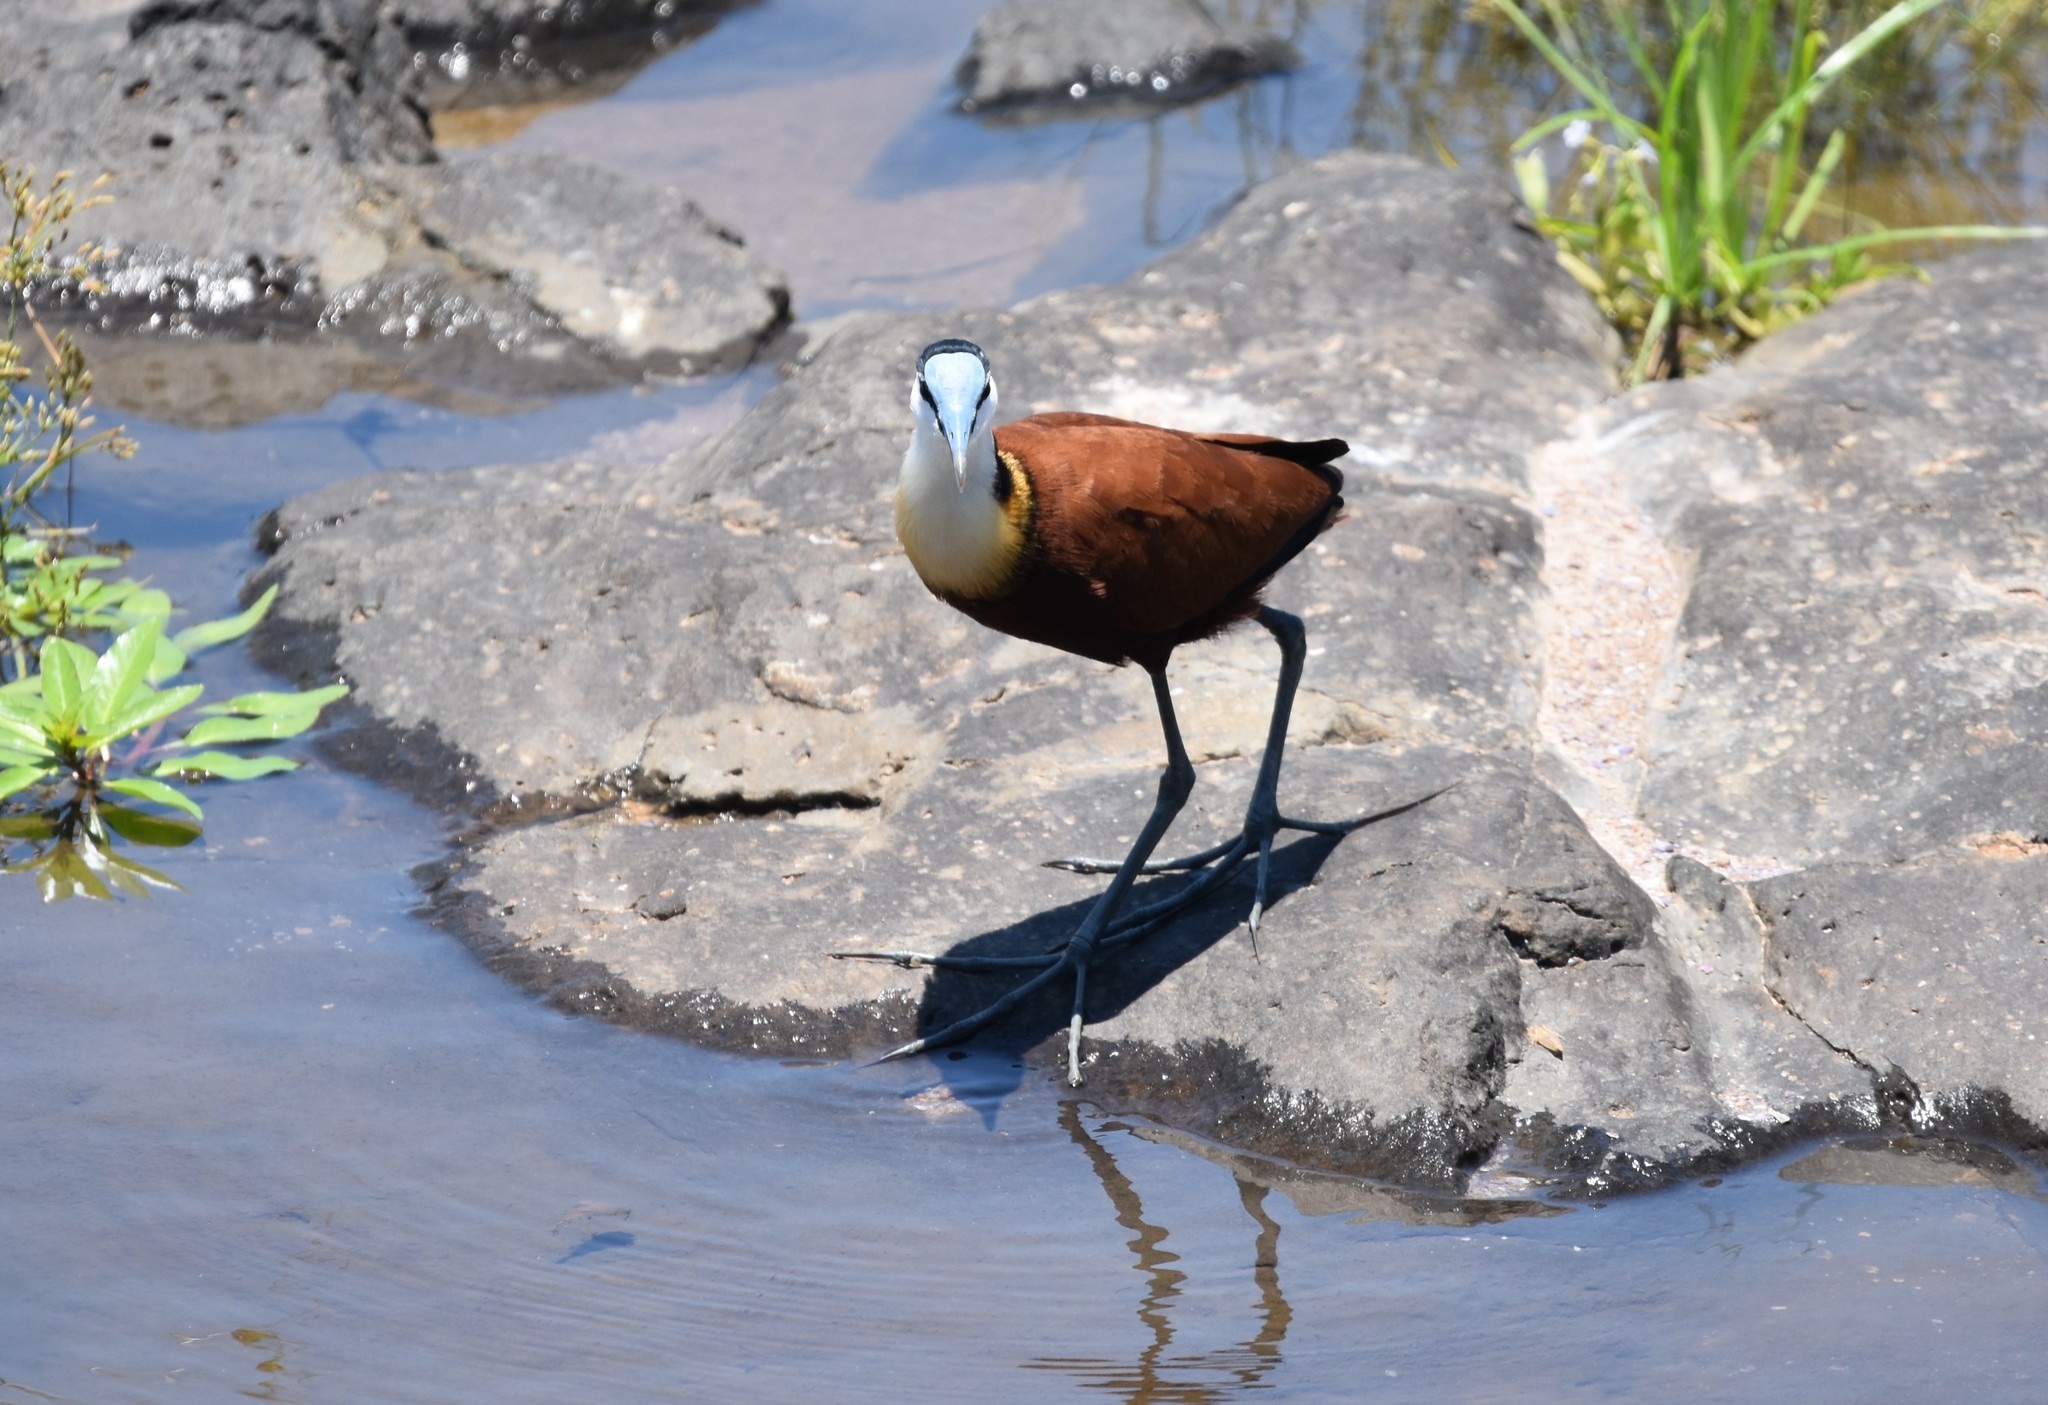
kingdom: Animalia
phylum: Chordata
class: Aves
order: Charadriiformes
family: Jacanidae
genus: Actophilornis
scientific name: Actophilornis africanus
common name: African jacana
